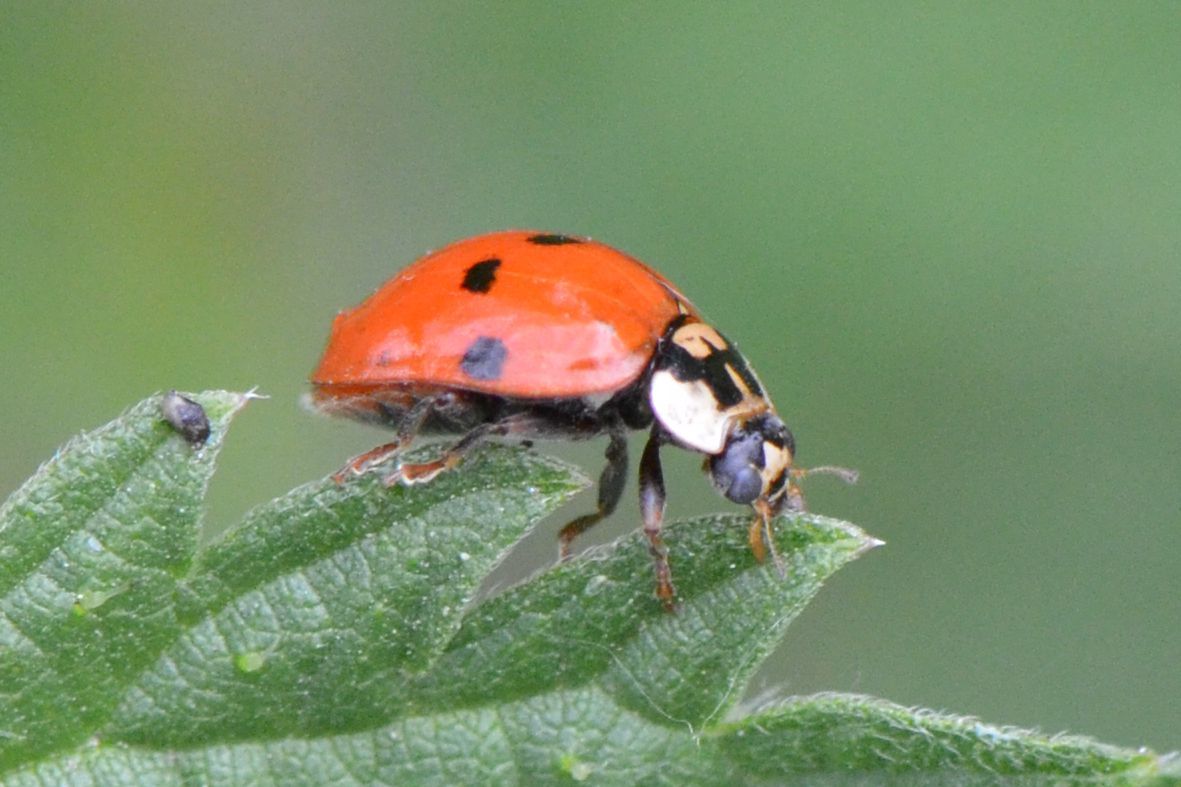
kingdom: Animalia
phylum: Arthropoda
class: Insecta
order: Coleoptera
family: Coccinellidae
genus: Harmonia
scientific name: Harmonia axyridis
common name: Harlequin ladybird
